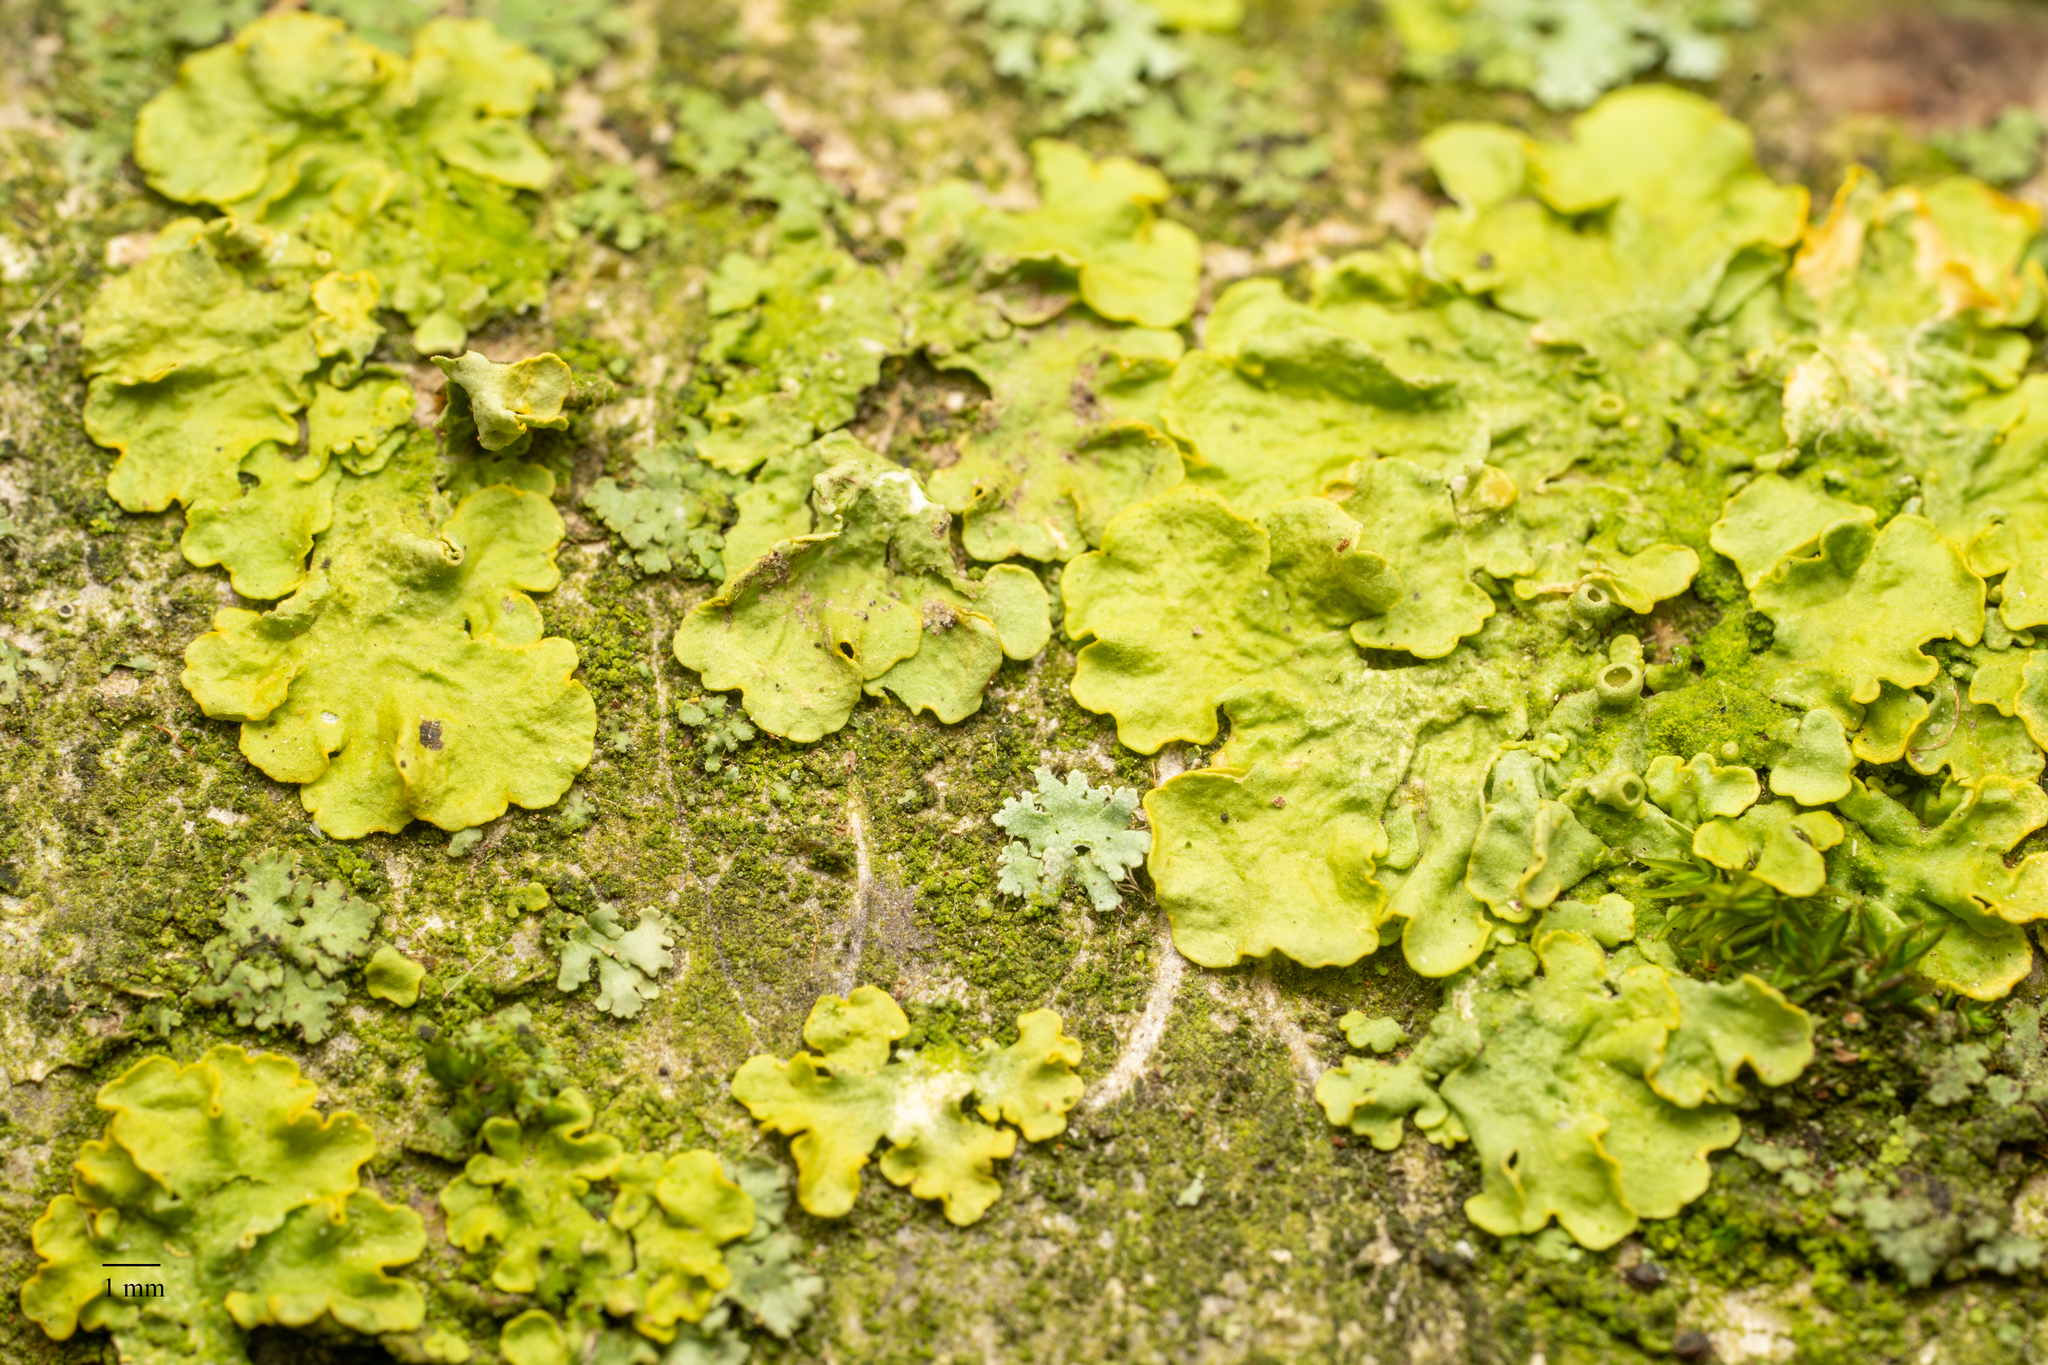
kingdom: Fungi
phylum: Ascomycota
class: Lecanoromycetes
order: Teloschistales
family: Teloschistaceae
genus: Xanthoria
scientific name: Xanthoria parietina
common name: Common orange lichen
